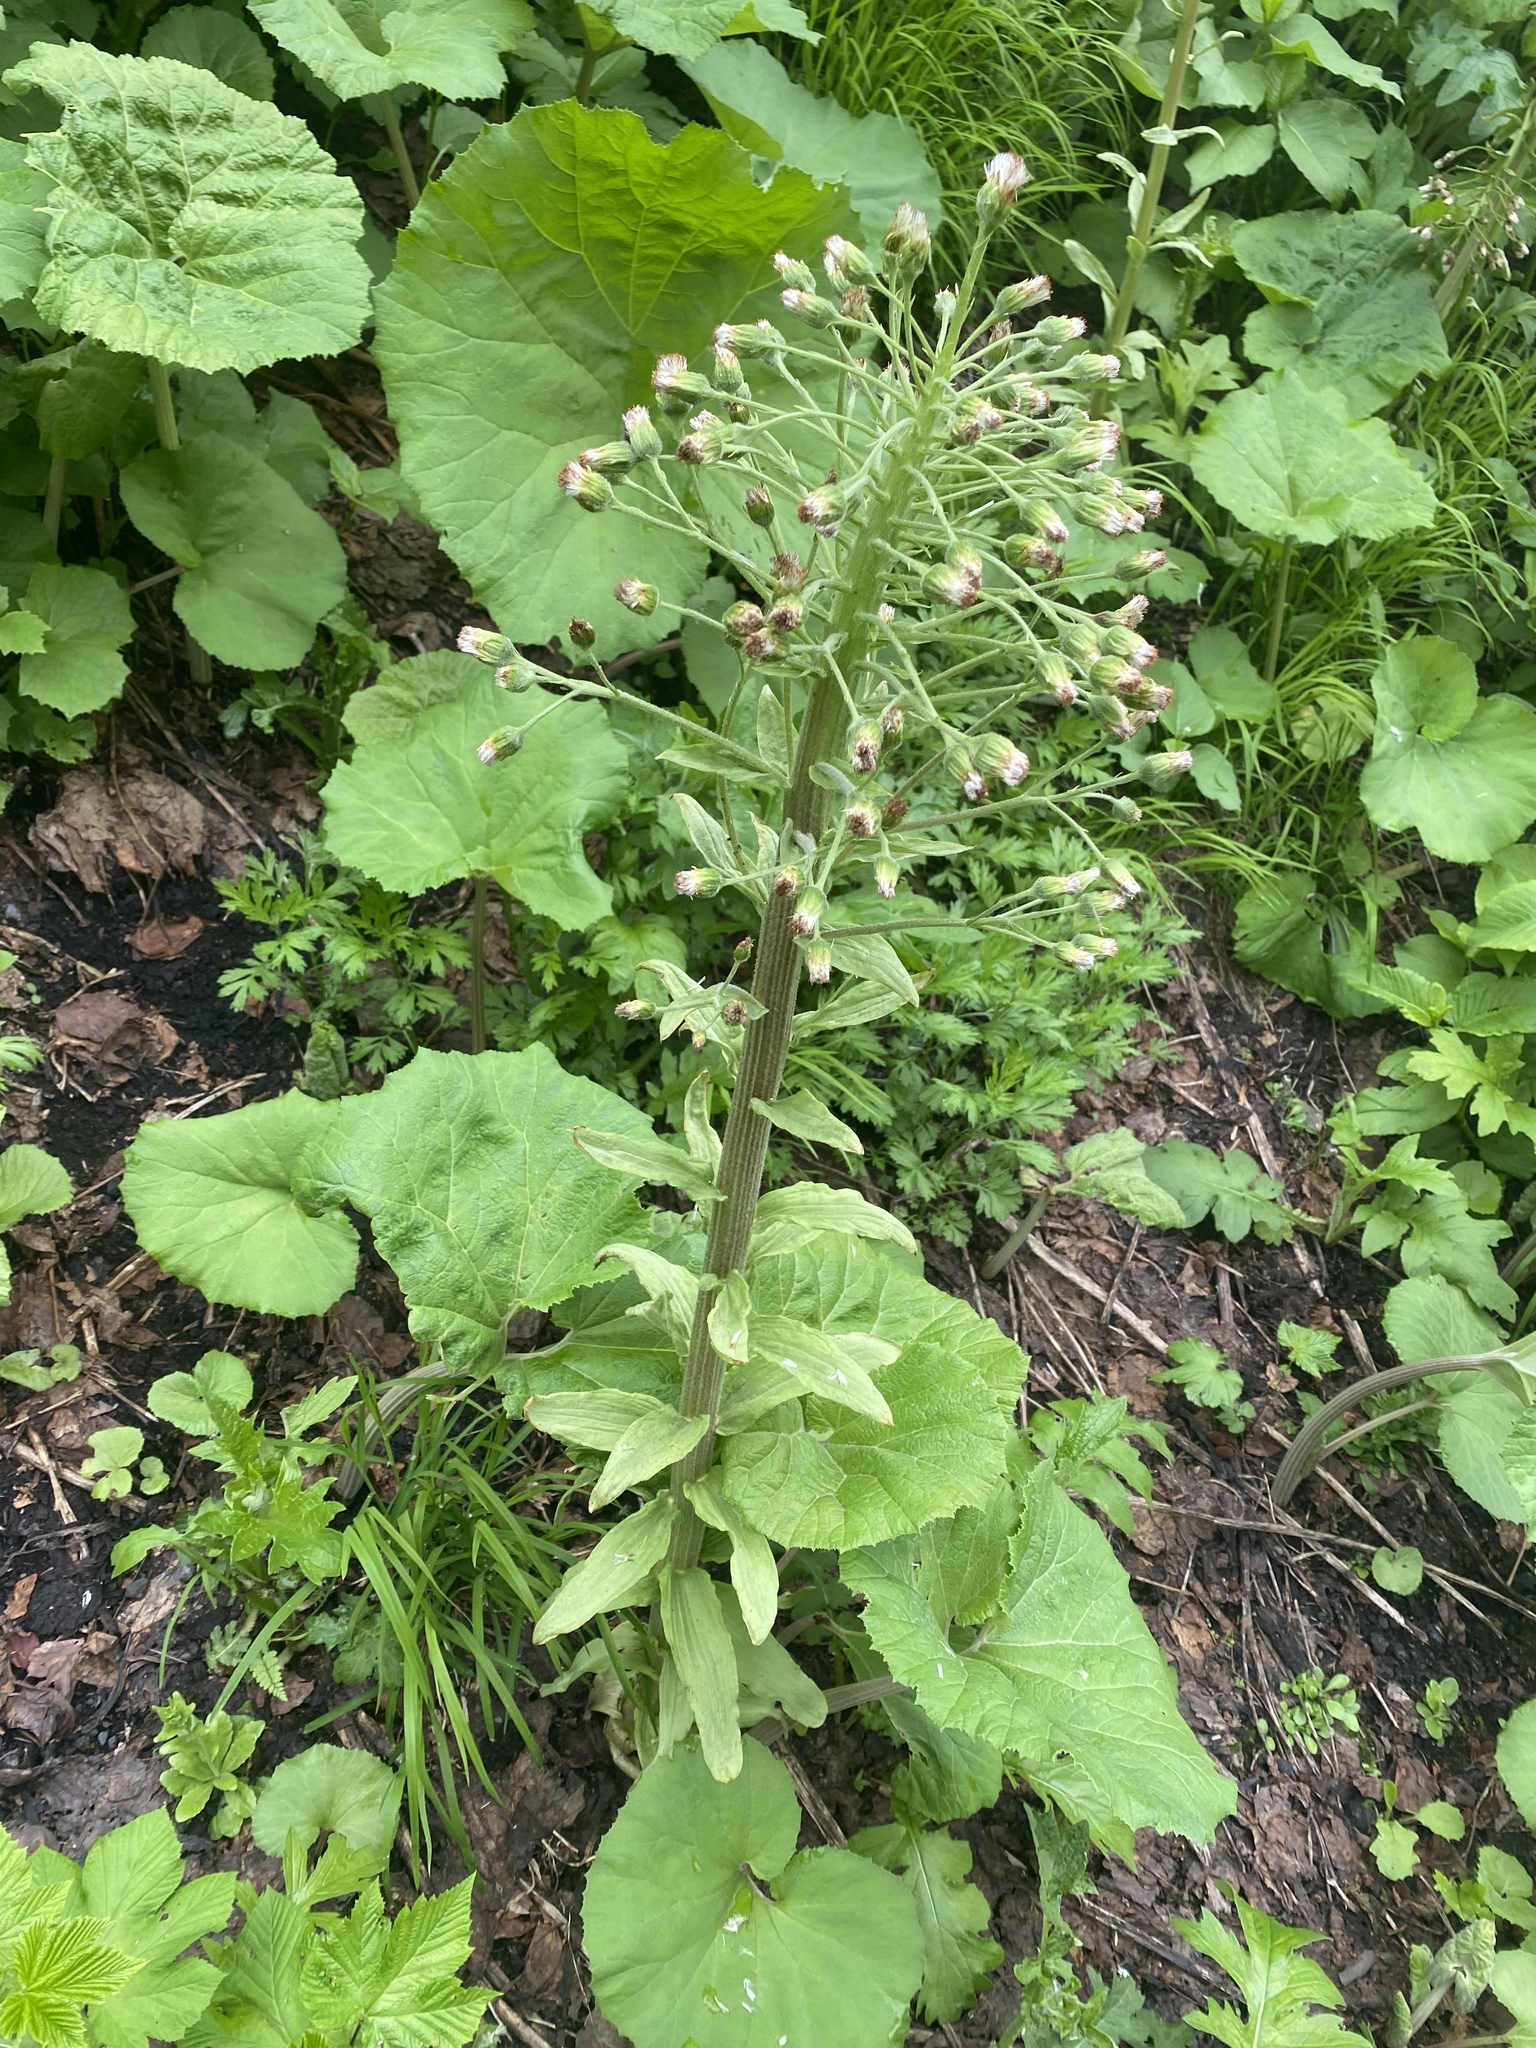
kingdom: Plantae
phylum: Tracheophyta
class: Magnoliopsida
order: Asterales
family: Asteraceae
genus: Petasites
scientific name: Petasites japonicus
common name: Giant butterbur
